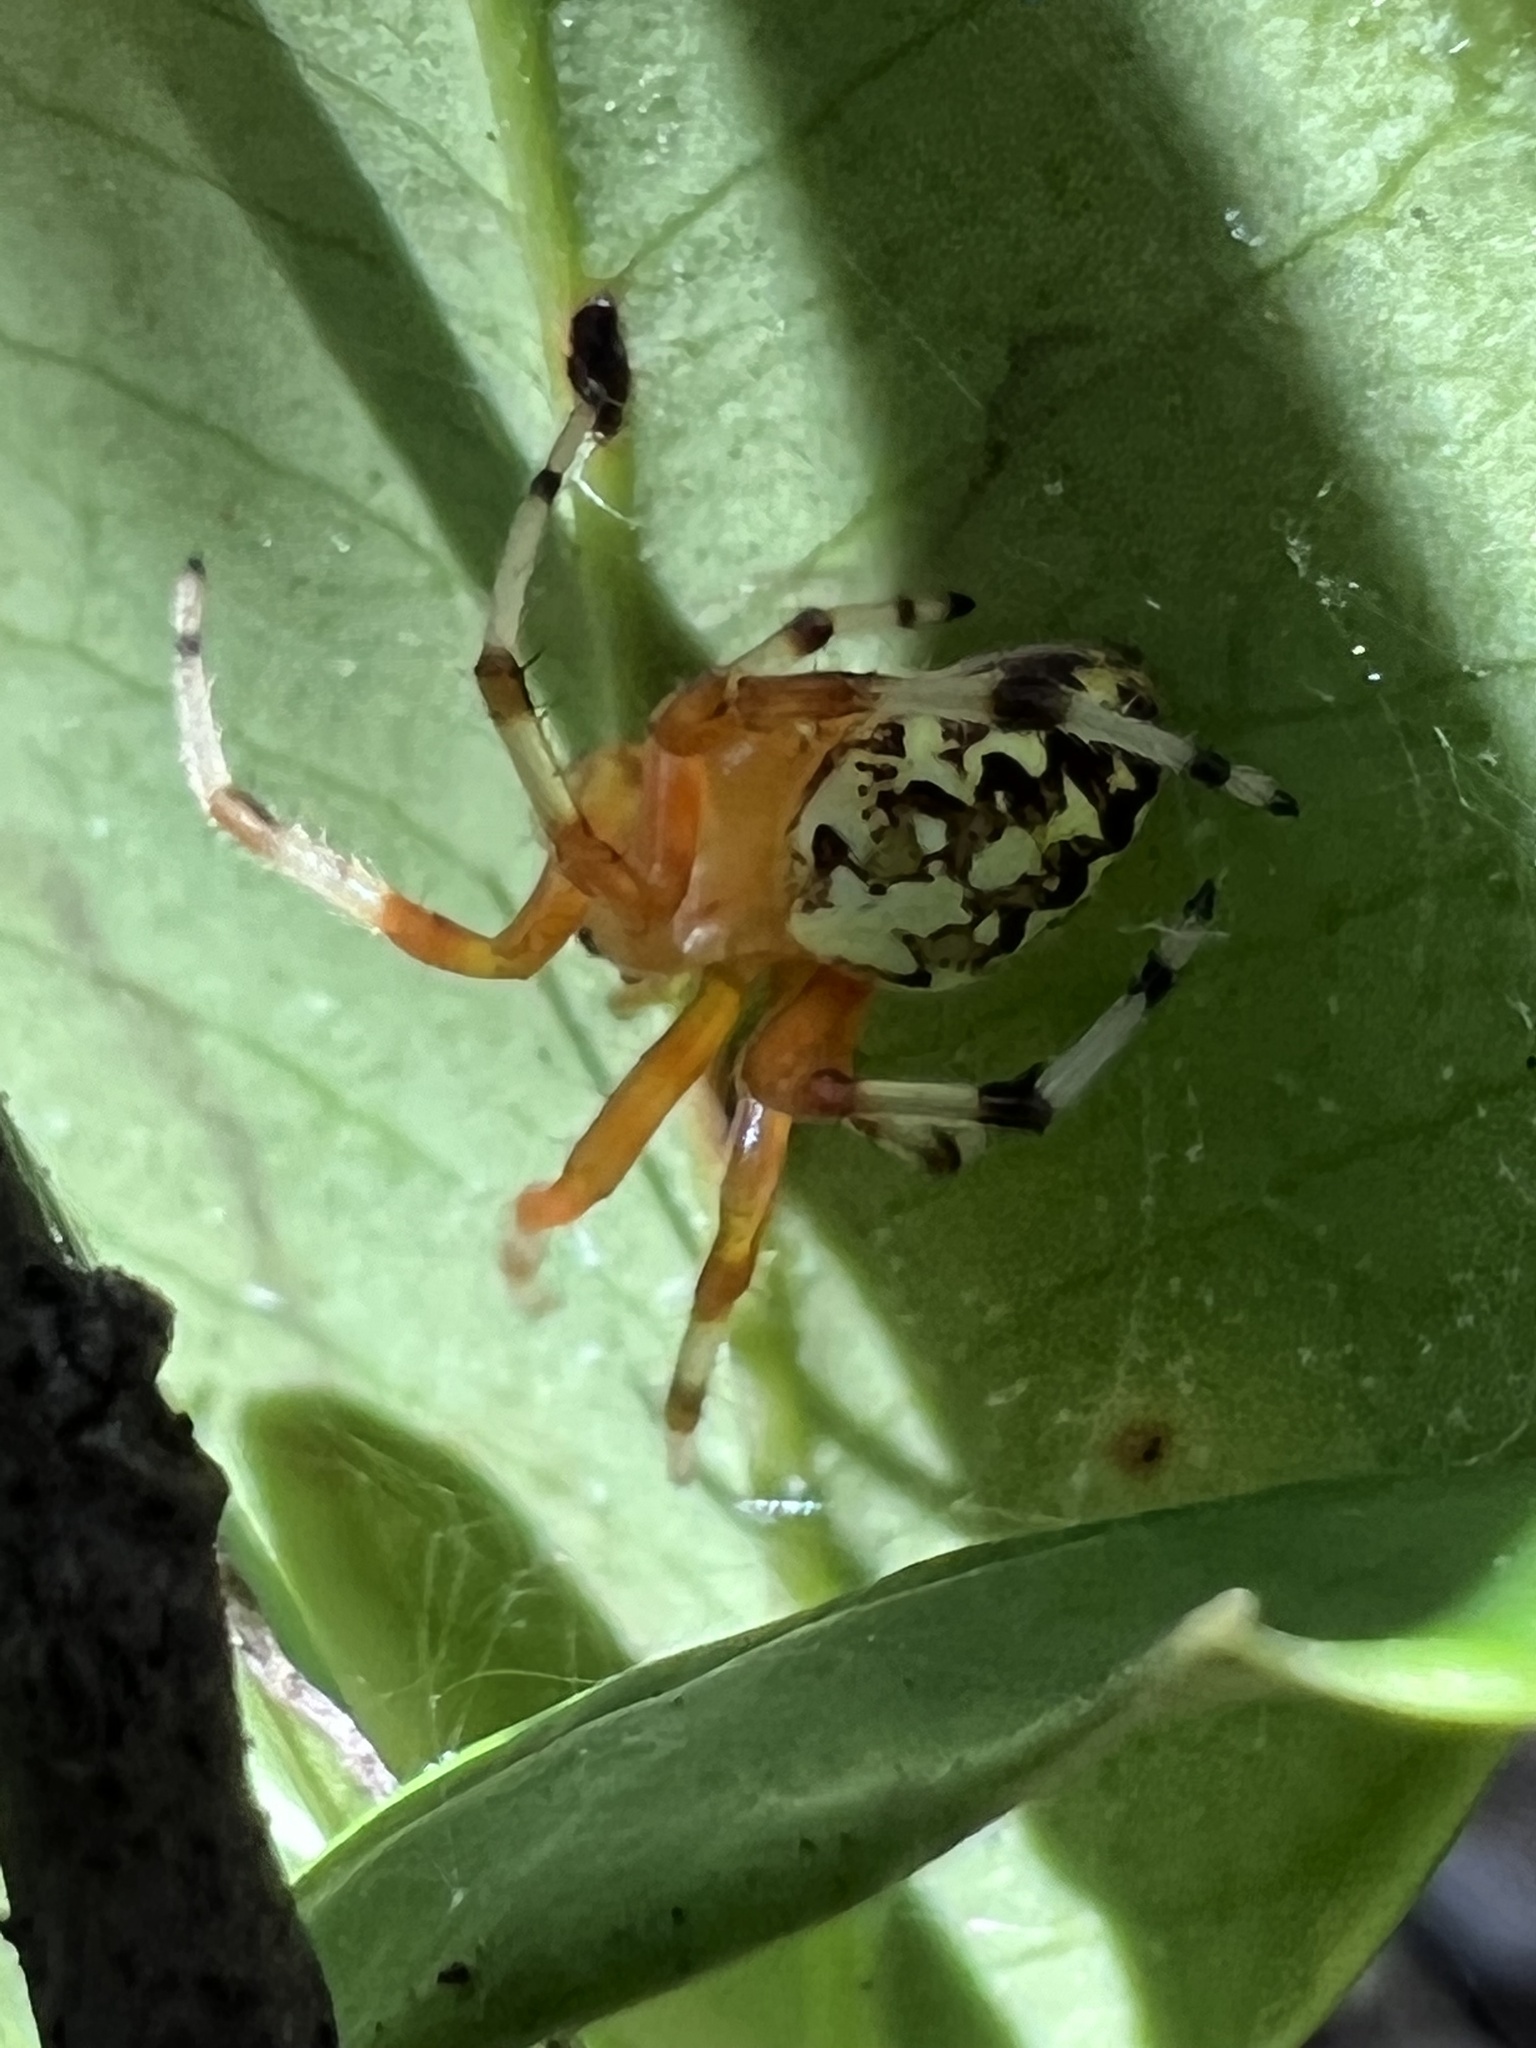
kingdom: Animalia
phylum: Arthropoda
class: Arachnida
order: Araneae
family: Araneidae
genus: Araneus
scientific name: Araneus marmoreus
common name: Marbled orbweaver
